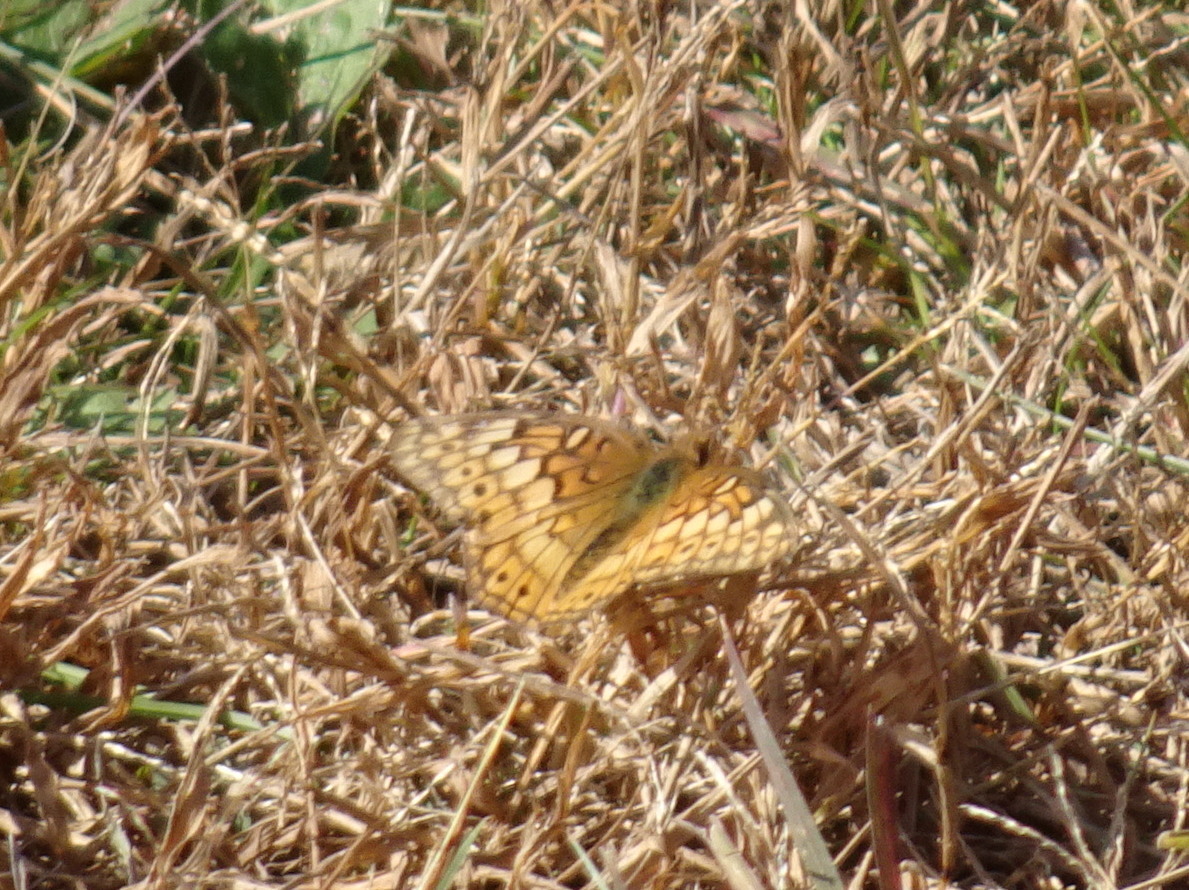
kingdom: Animalia
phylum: Arthropoda
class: Insecta
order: Lepidoptera
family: Nymphalidae
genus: Euptoieta
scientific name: Euptoieta claudia
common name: Variegated fritillary
